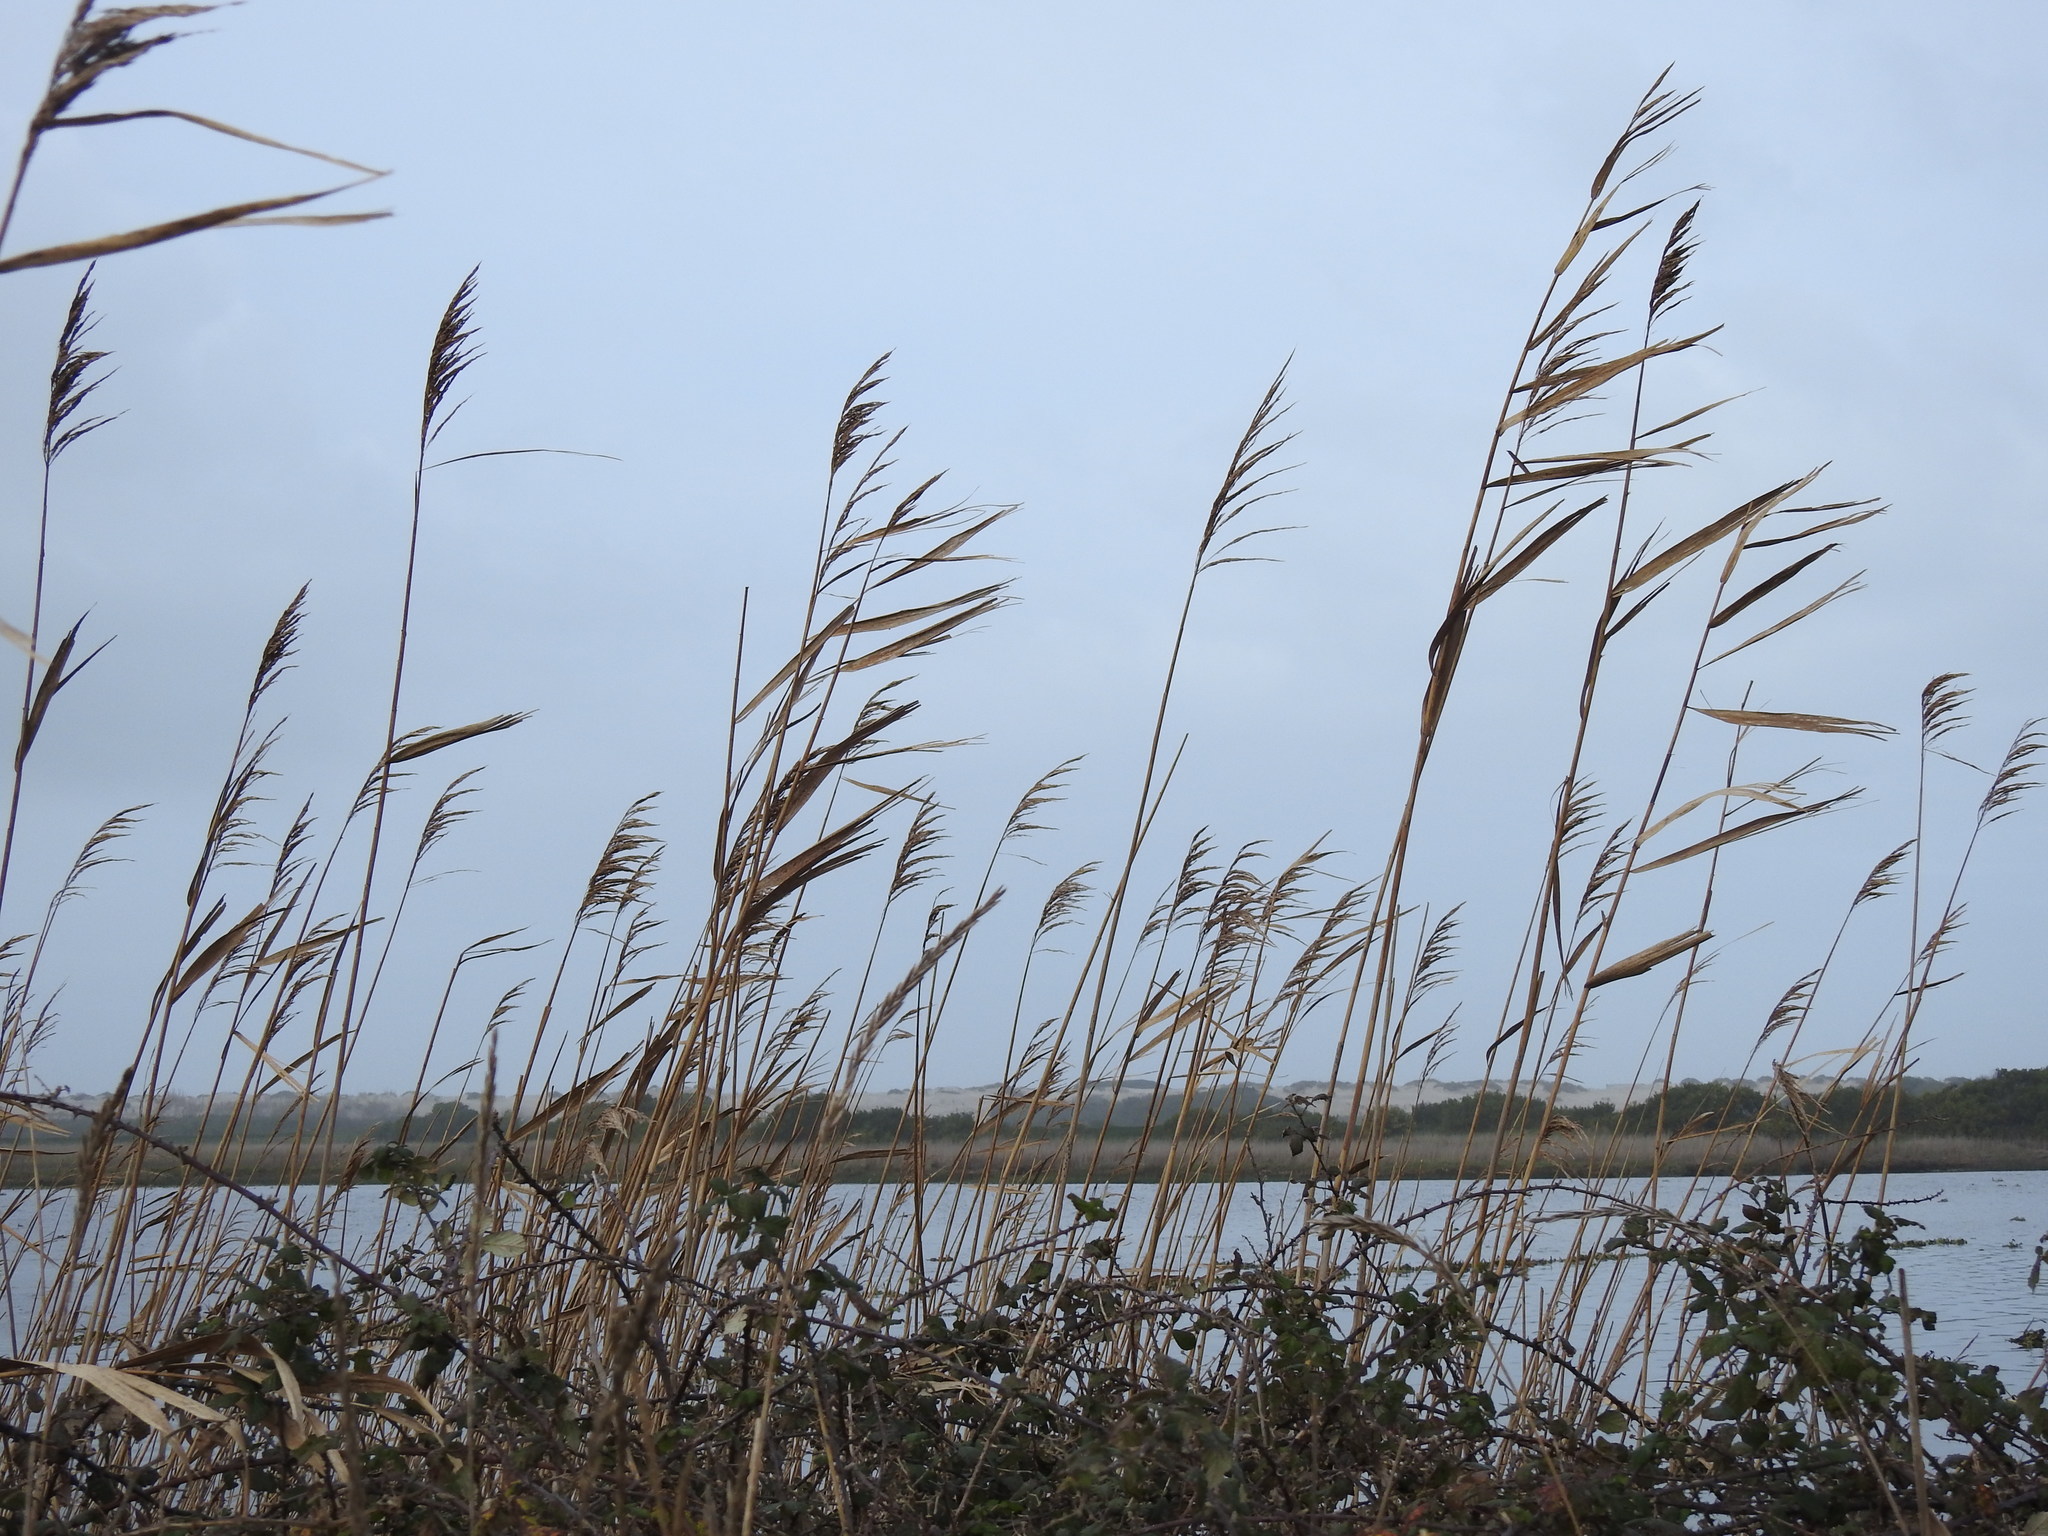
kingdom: Plantae
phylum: Tracheophyta
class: Liliopsida
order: Poales
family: Poaceae
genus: Phragmites
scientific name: Phragmites australis
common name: Common reed
